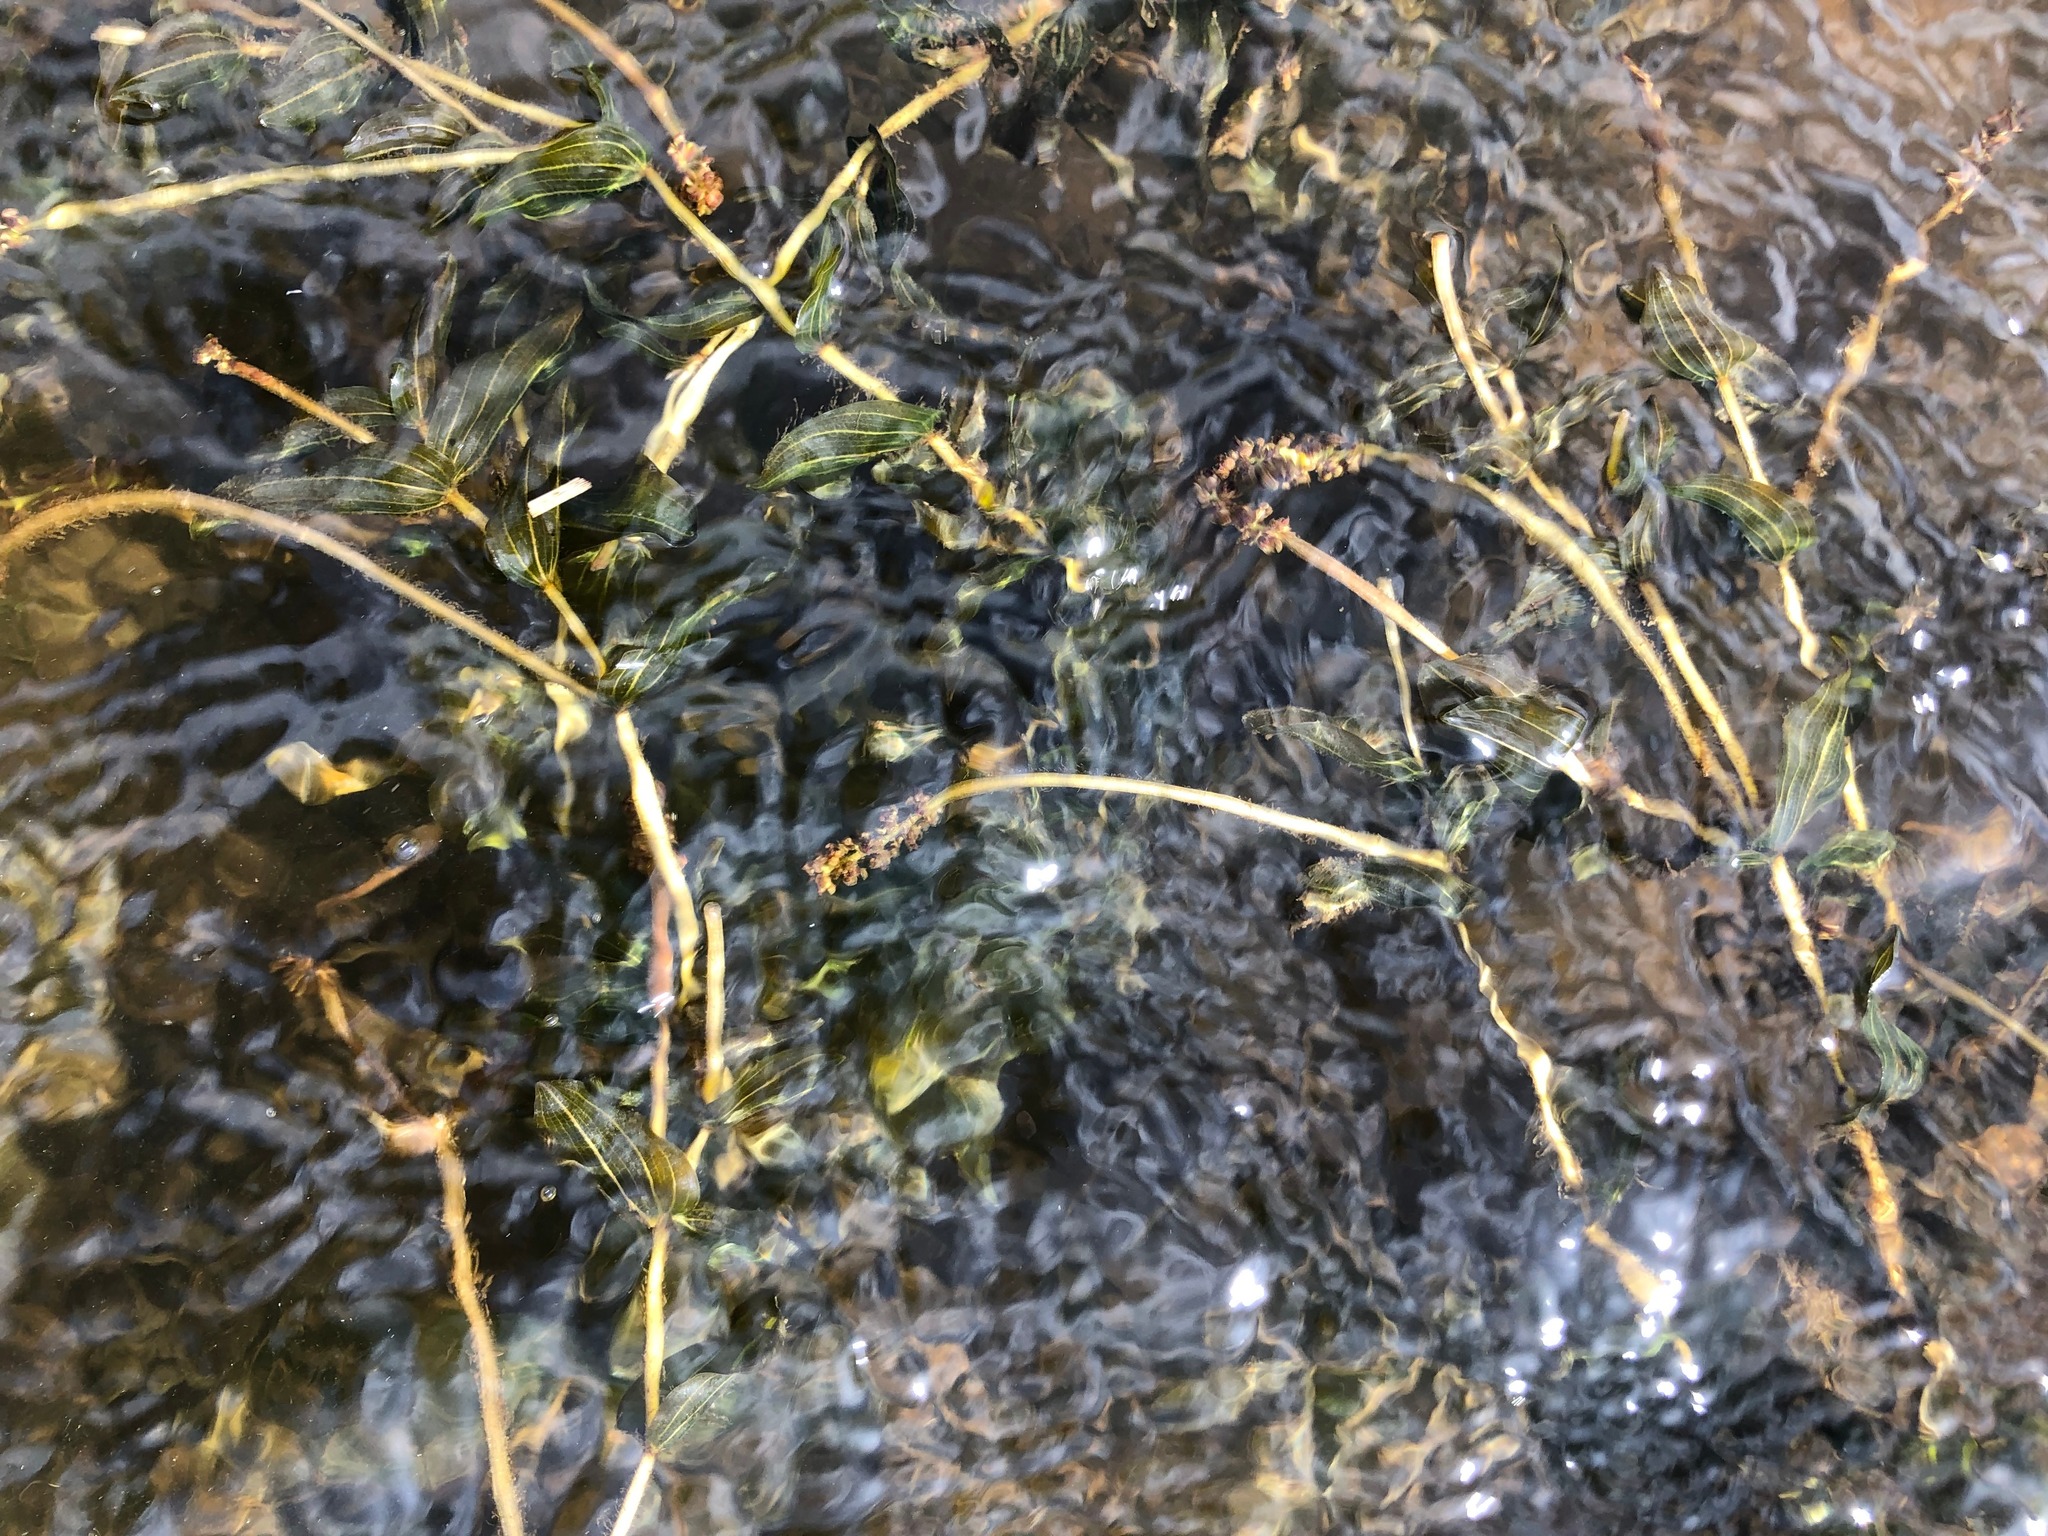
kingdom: Plantae
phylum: Tracheophyta
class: Liliopsida
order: Alismatales
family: Potamogetonaceae
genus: Potamogeton
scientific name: Potamogeton perfoliatus
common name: Perfoliate pondweed
